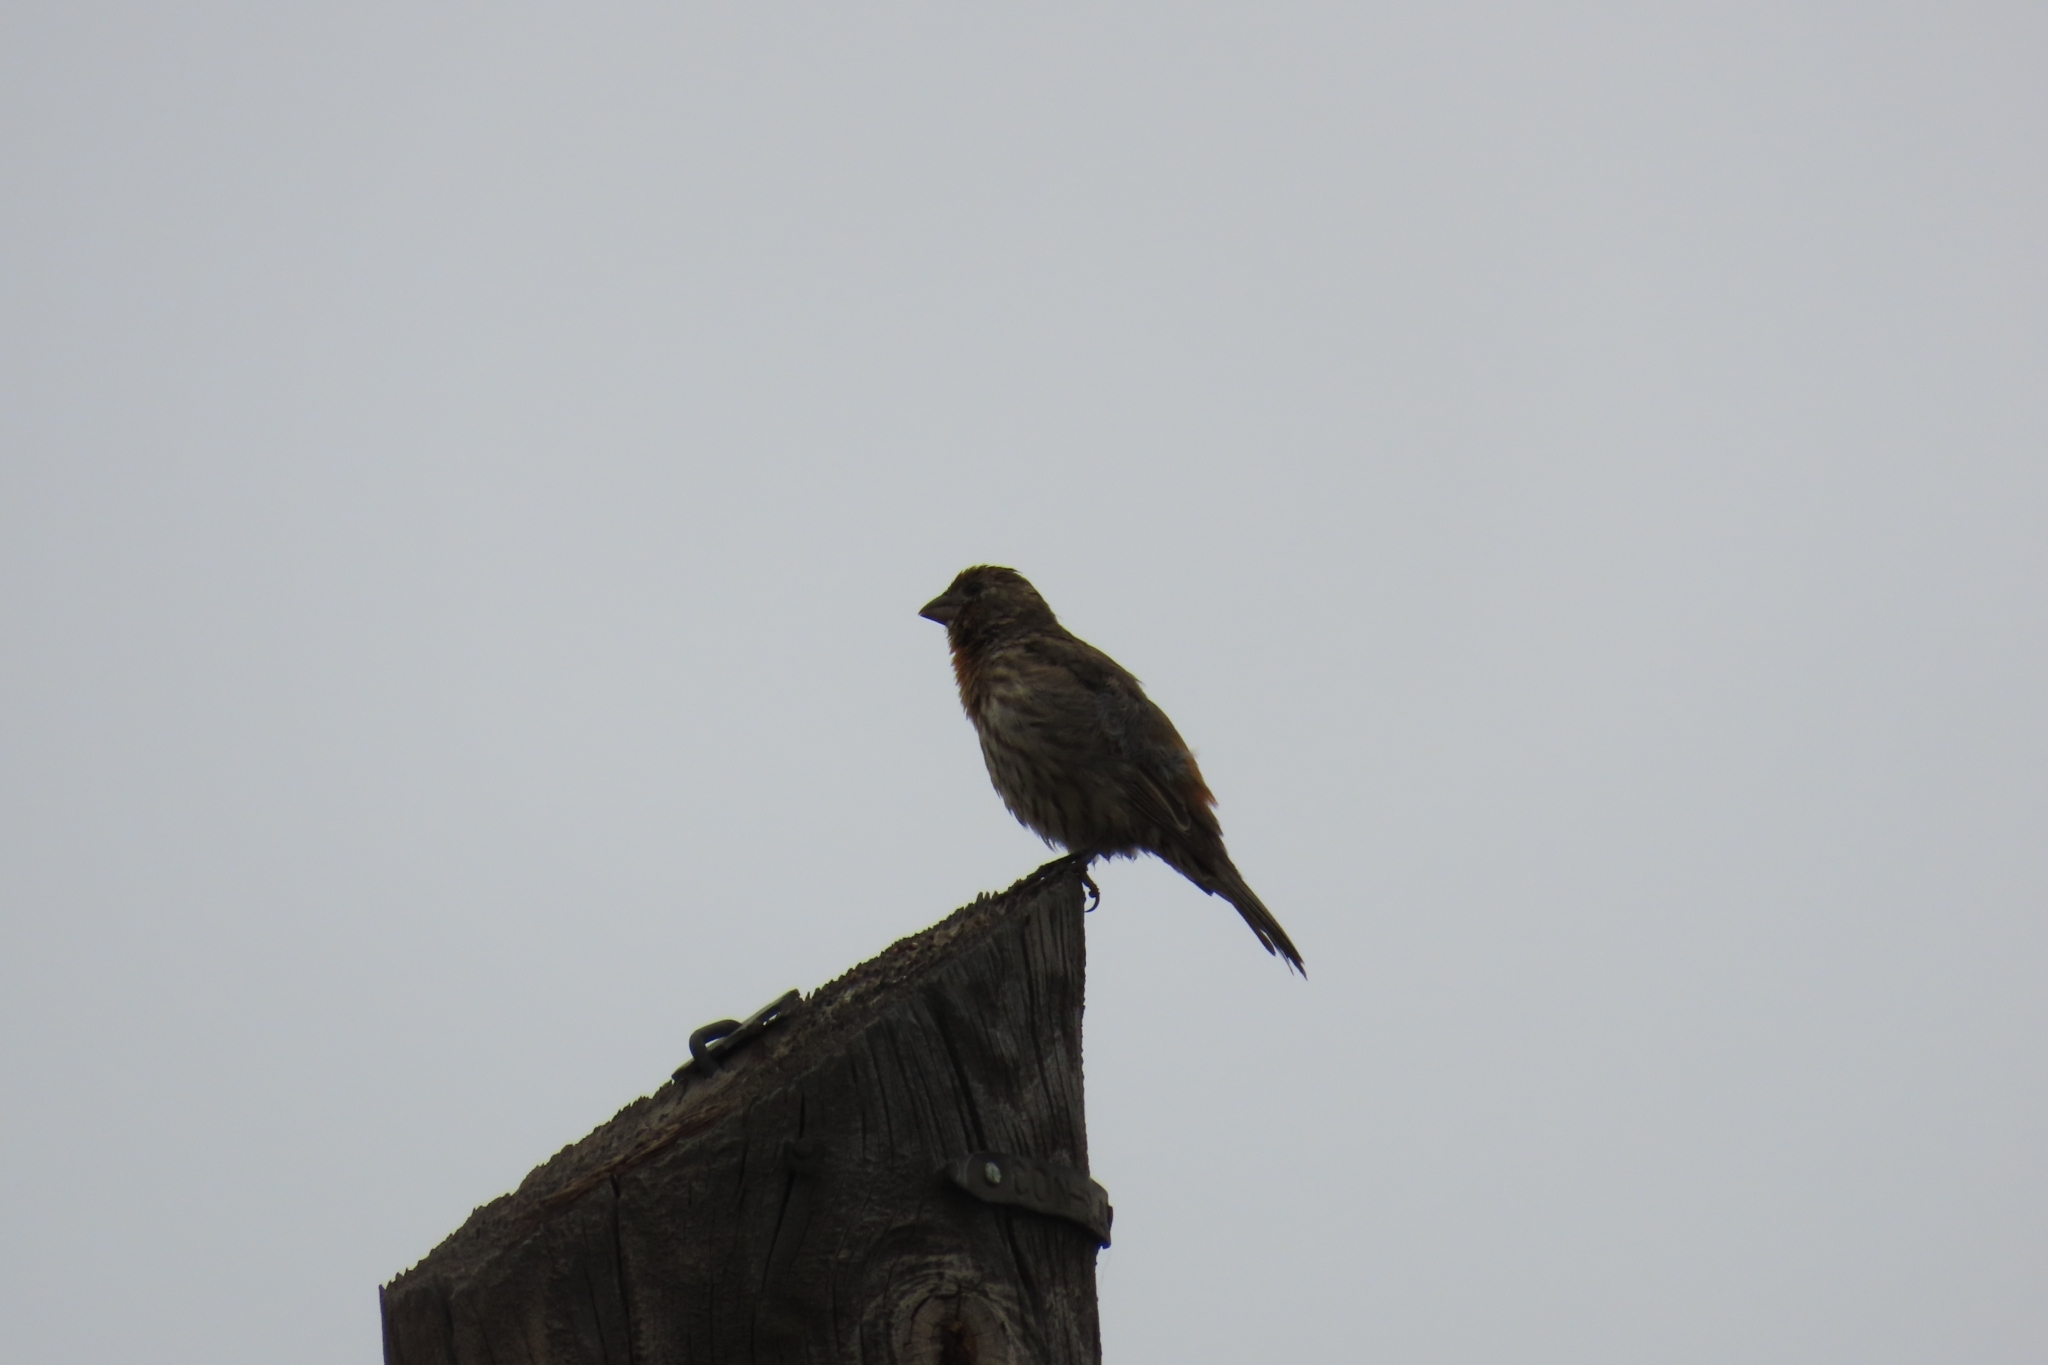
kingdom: Animalia
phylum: Chordata
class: Aves
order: Passeriformes
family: Fringillidae
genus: Haemorhous
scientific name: Haemorhous mexicanus
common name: House finch
